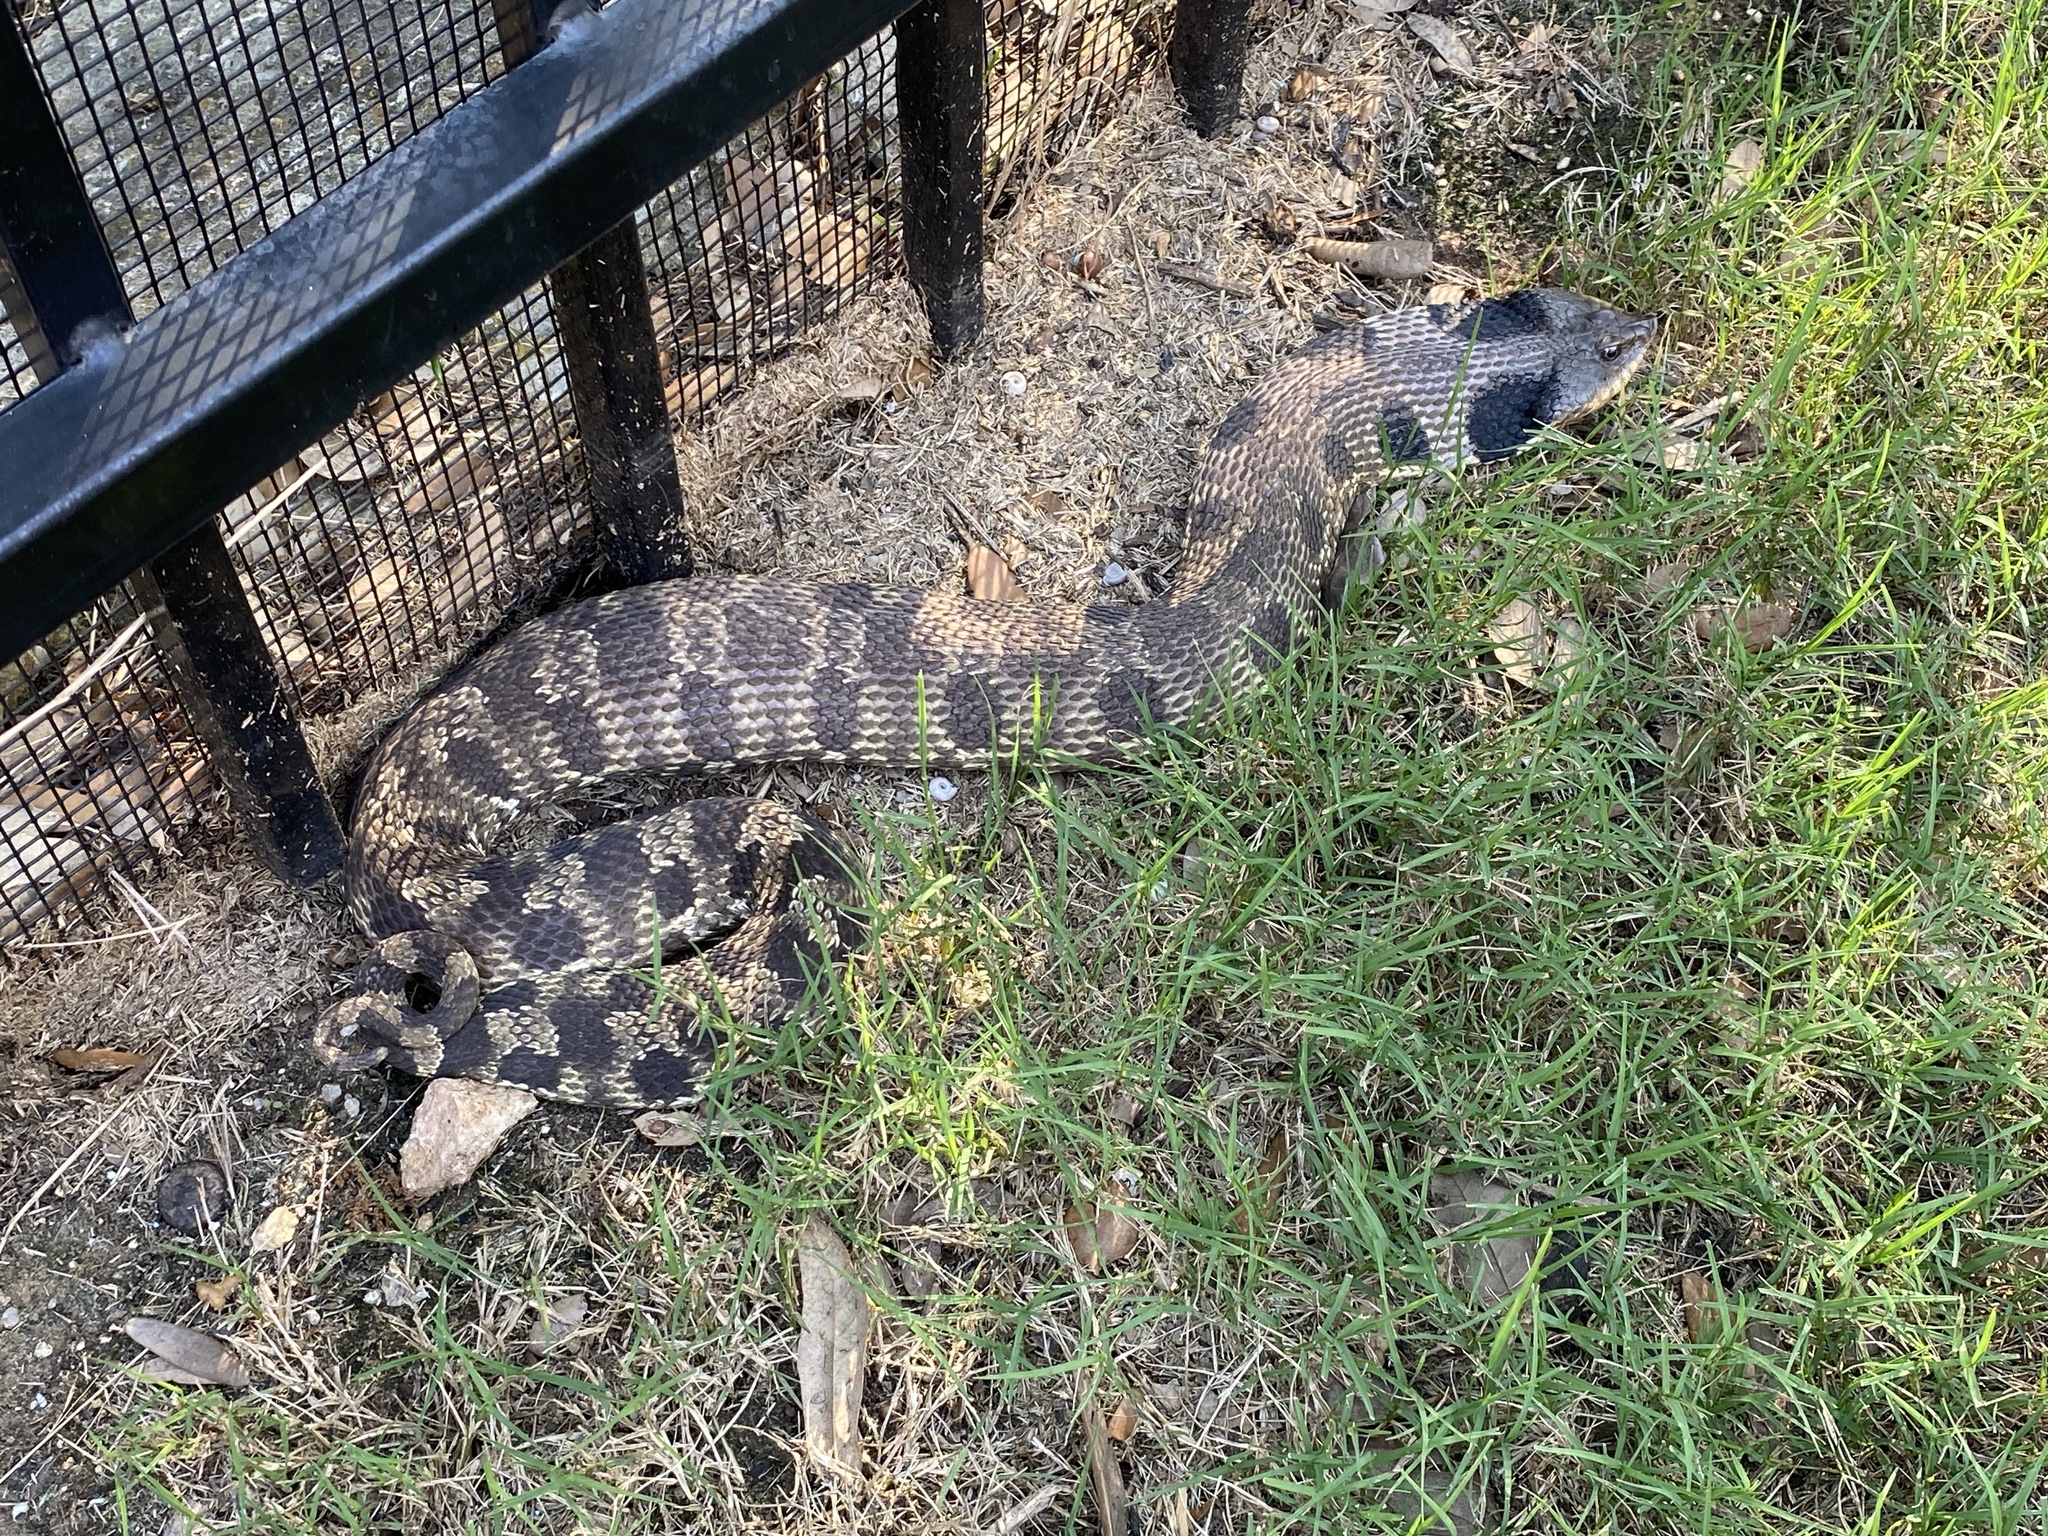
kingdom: Animalia
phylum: Chordata
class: Squamata
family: Colubridae
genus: Heterodon
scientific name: Heterodon platirhinos
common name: Eastern hognose snake
